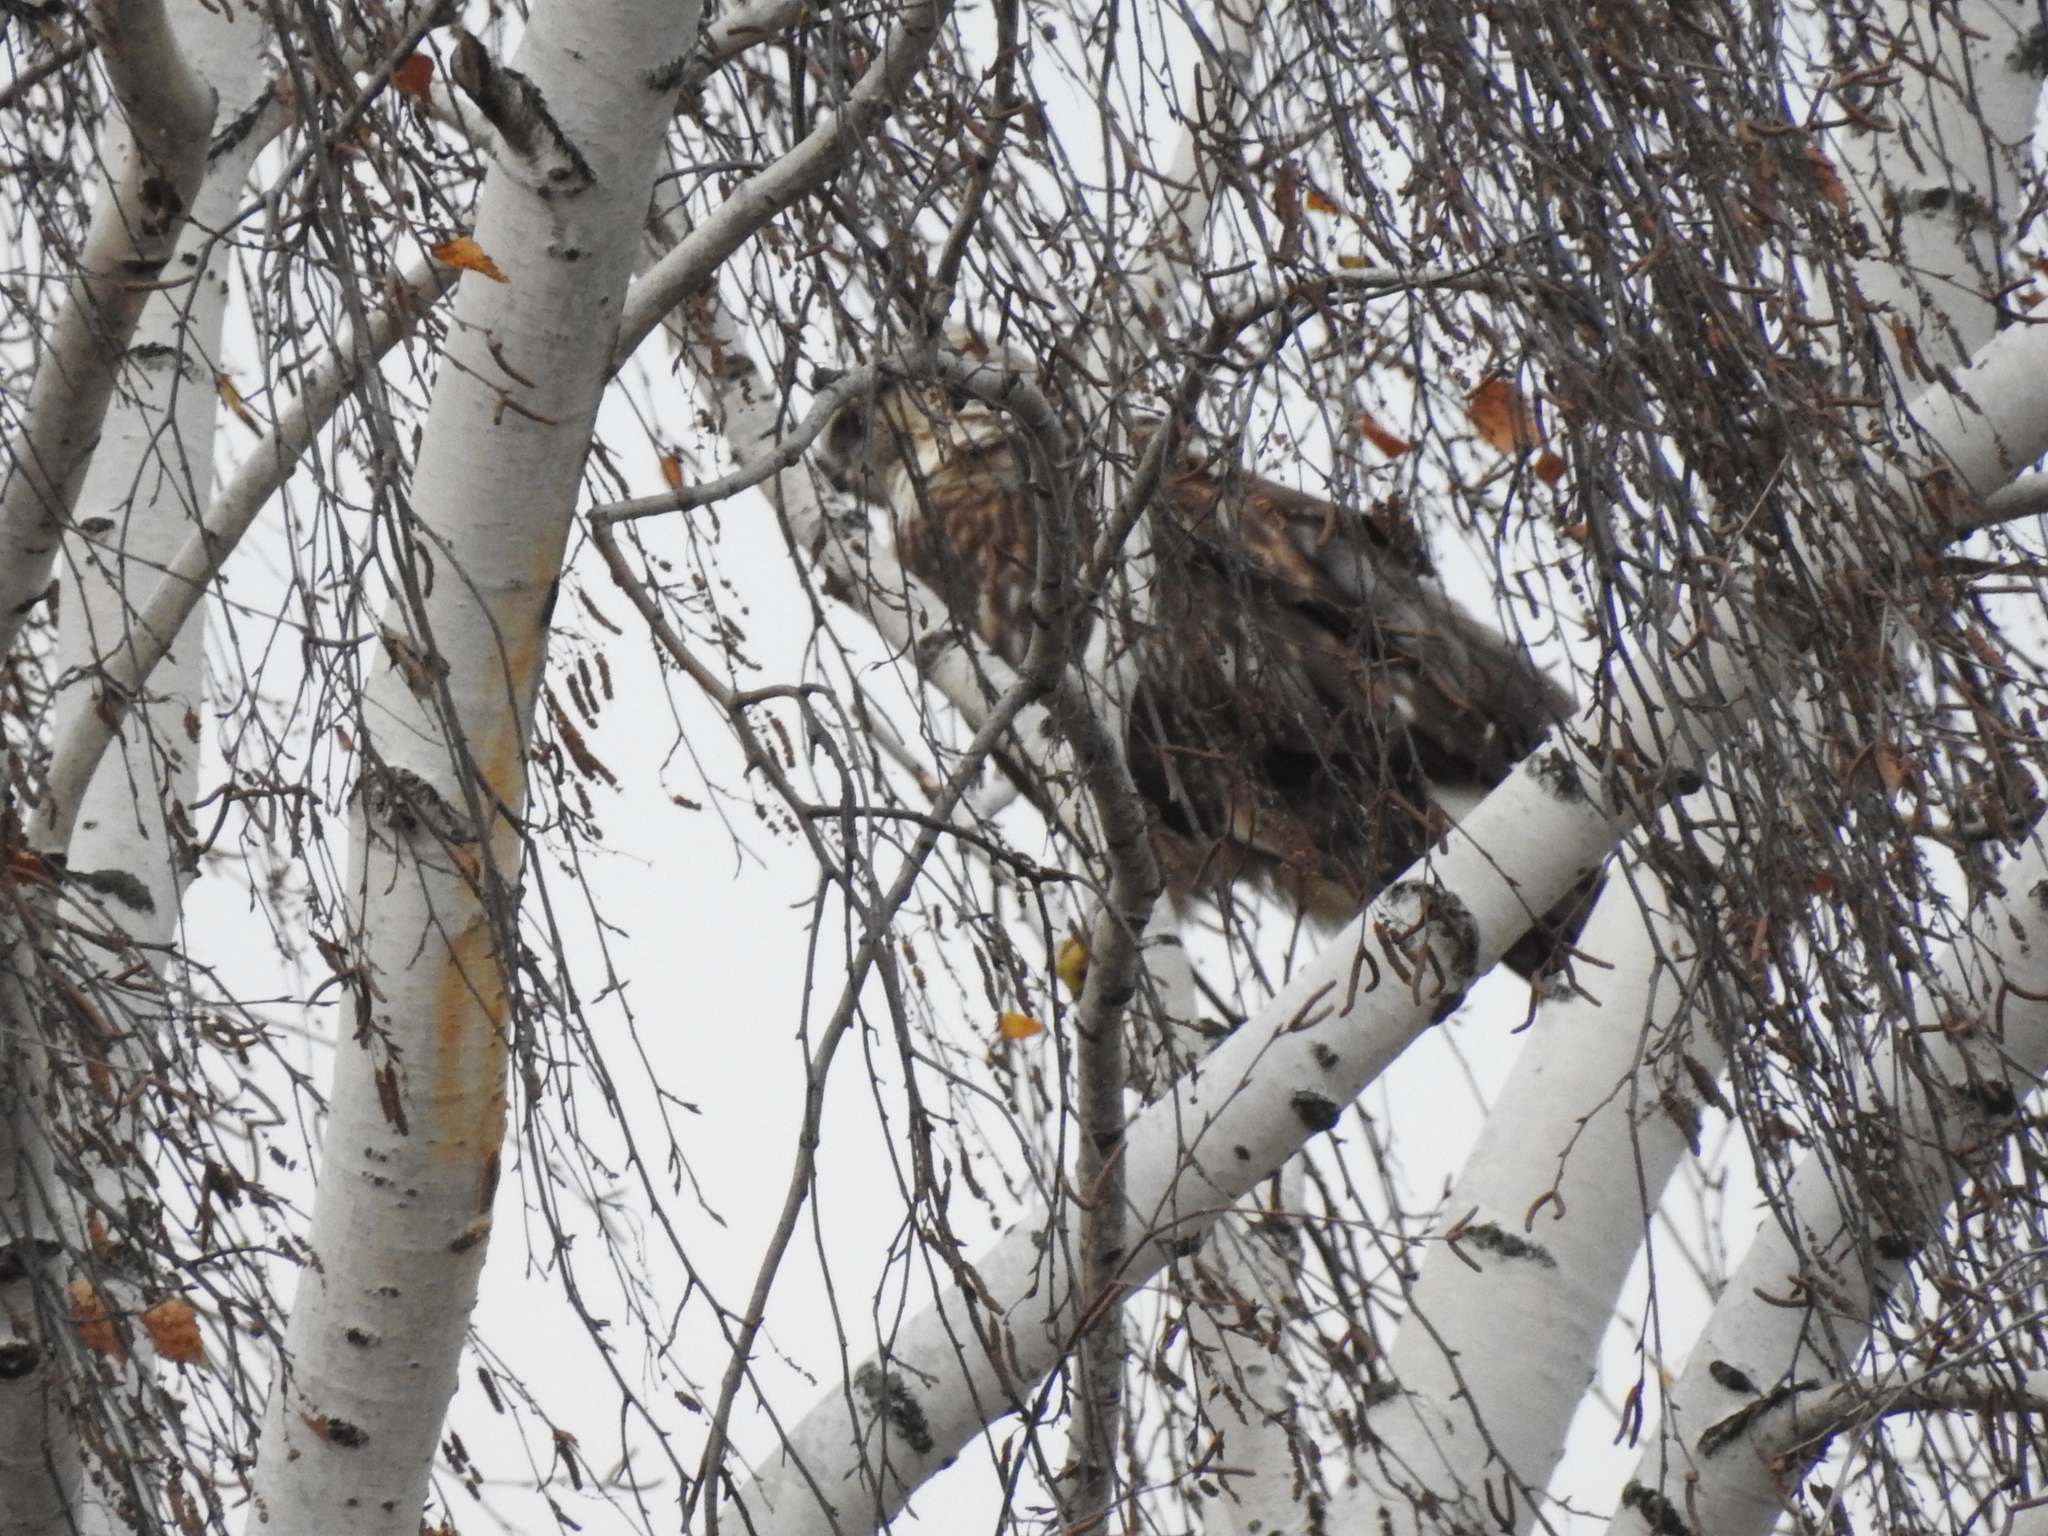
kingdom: Animalia
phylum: Chordata
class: Aves
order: Accipitriformes
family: Accipitridae
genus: Buteo
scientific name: Buteo lagopus
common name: Rough-legged buzzard
